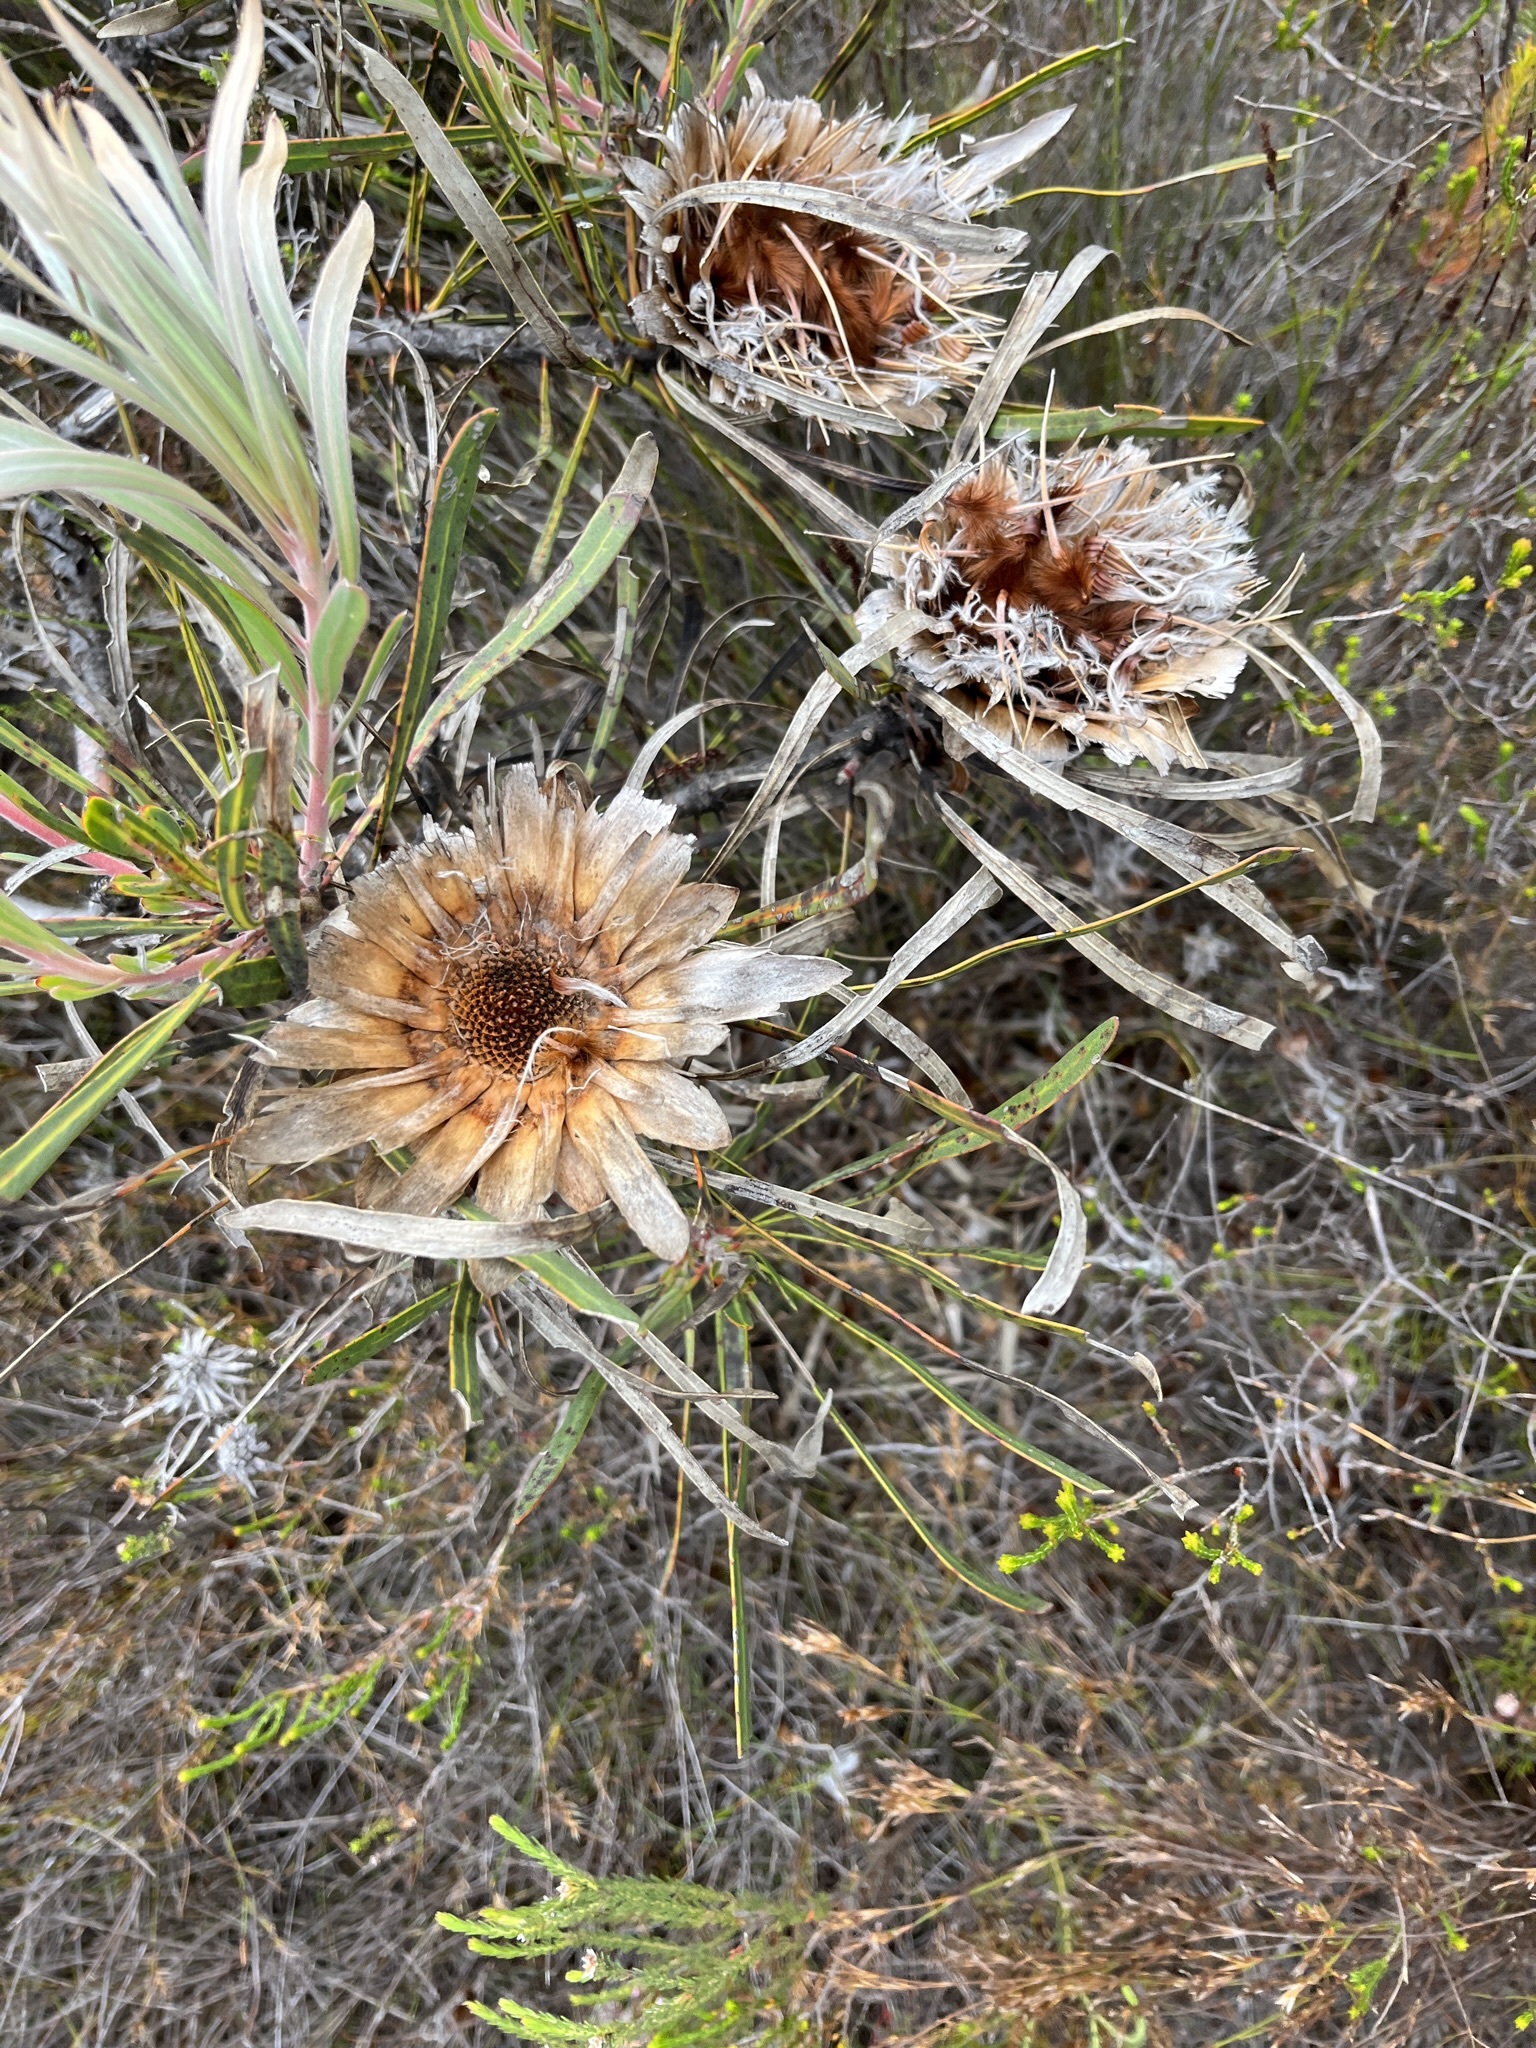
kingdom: Plantae
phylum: Tracheophyta
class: Magnoliopsida
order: Proteales
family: Proteaceae
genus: Protea
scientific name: Protea longifolia
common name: Long-leaf sugarbush
